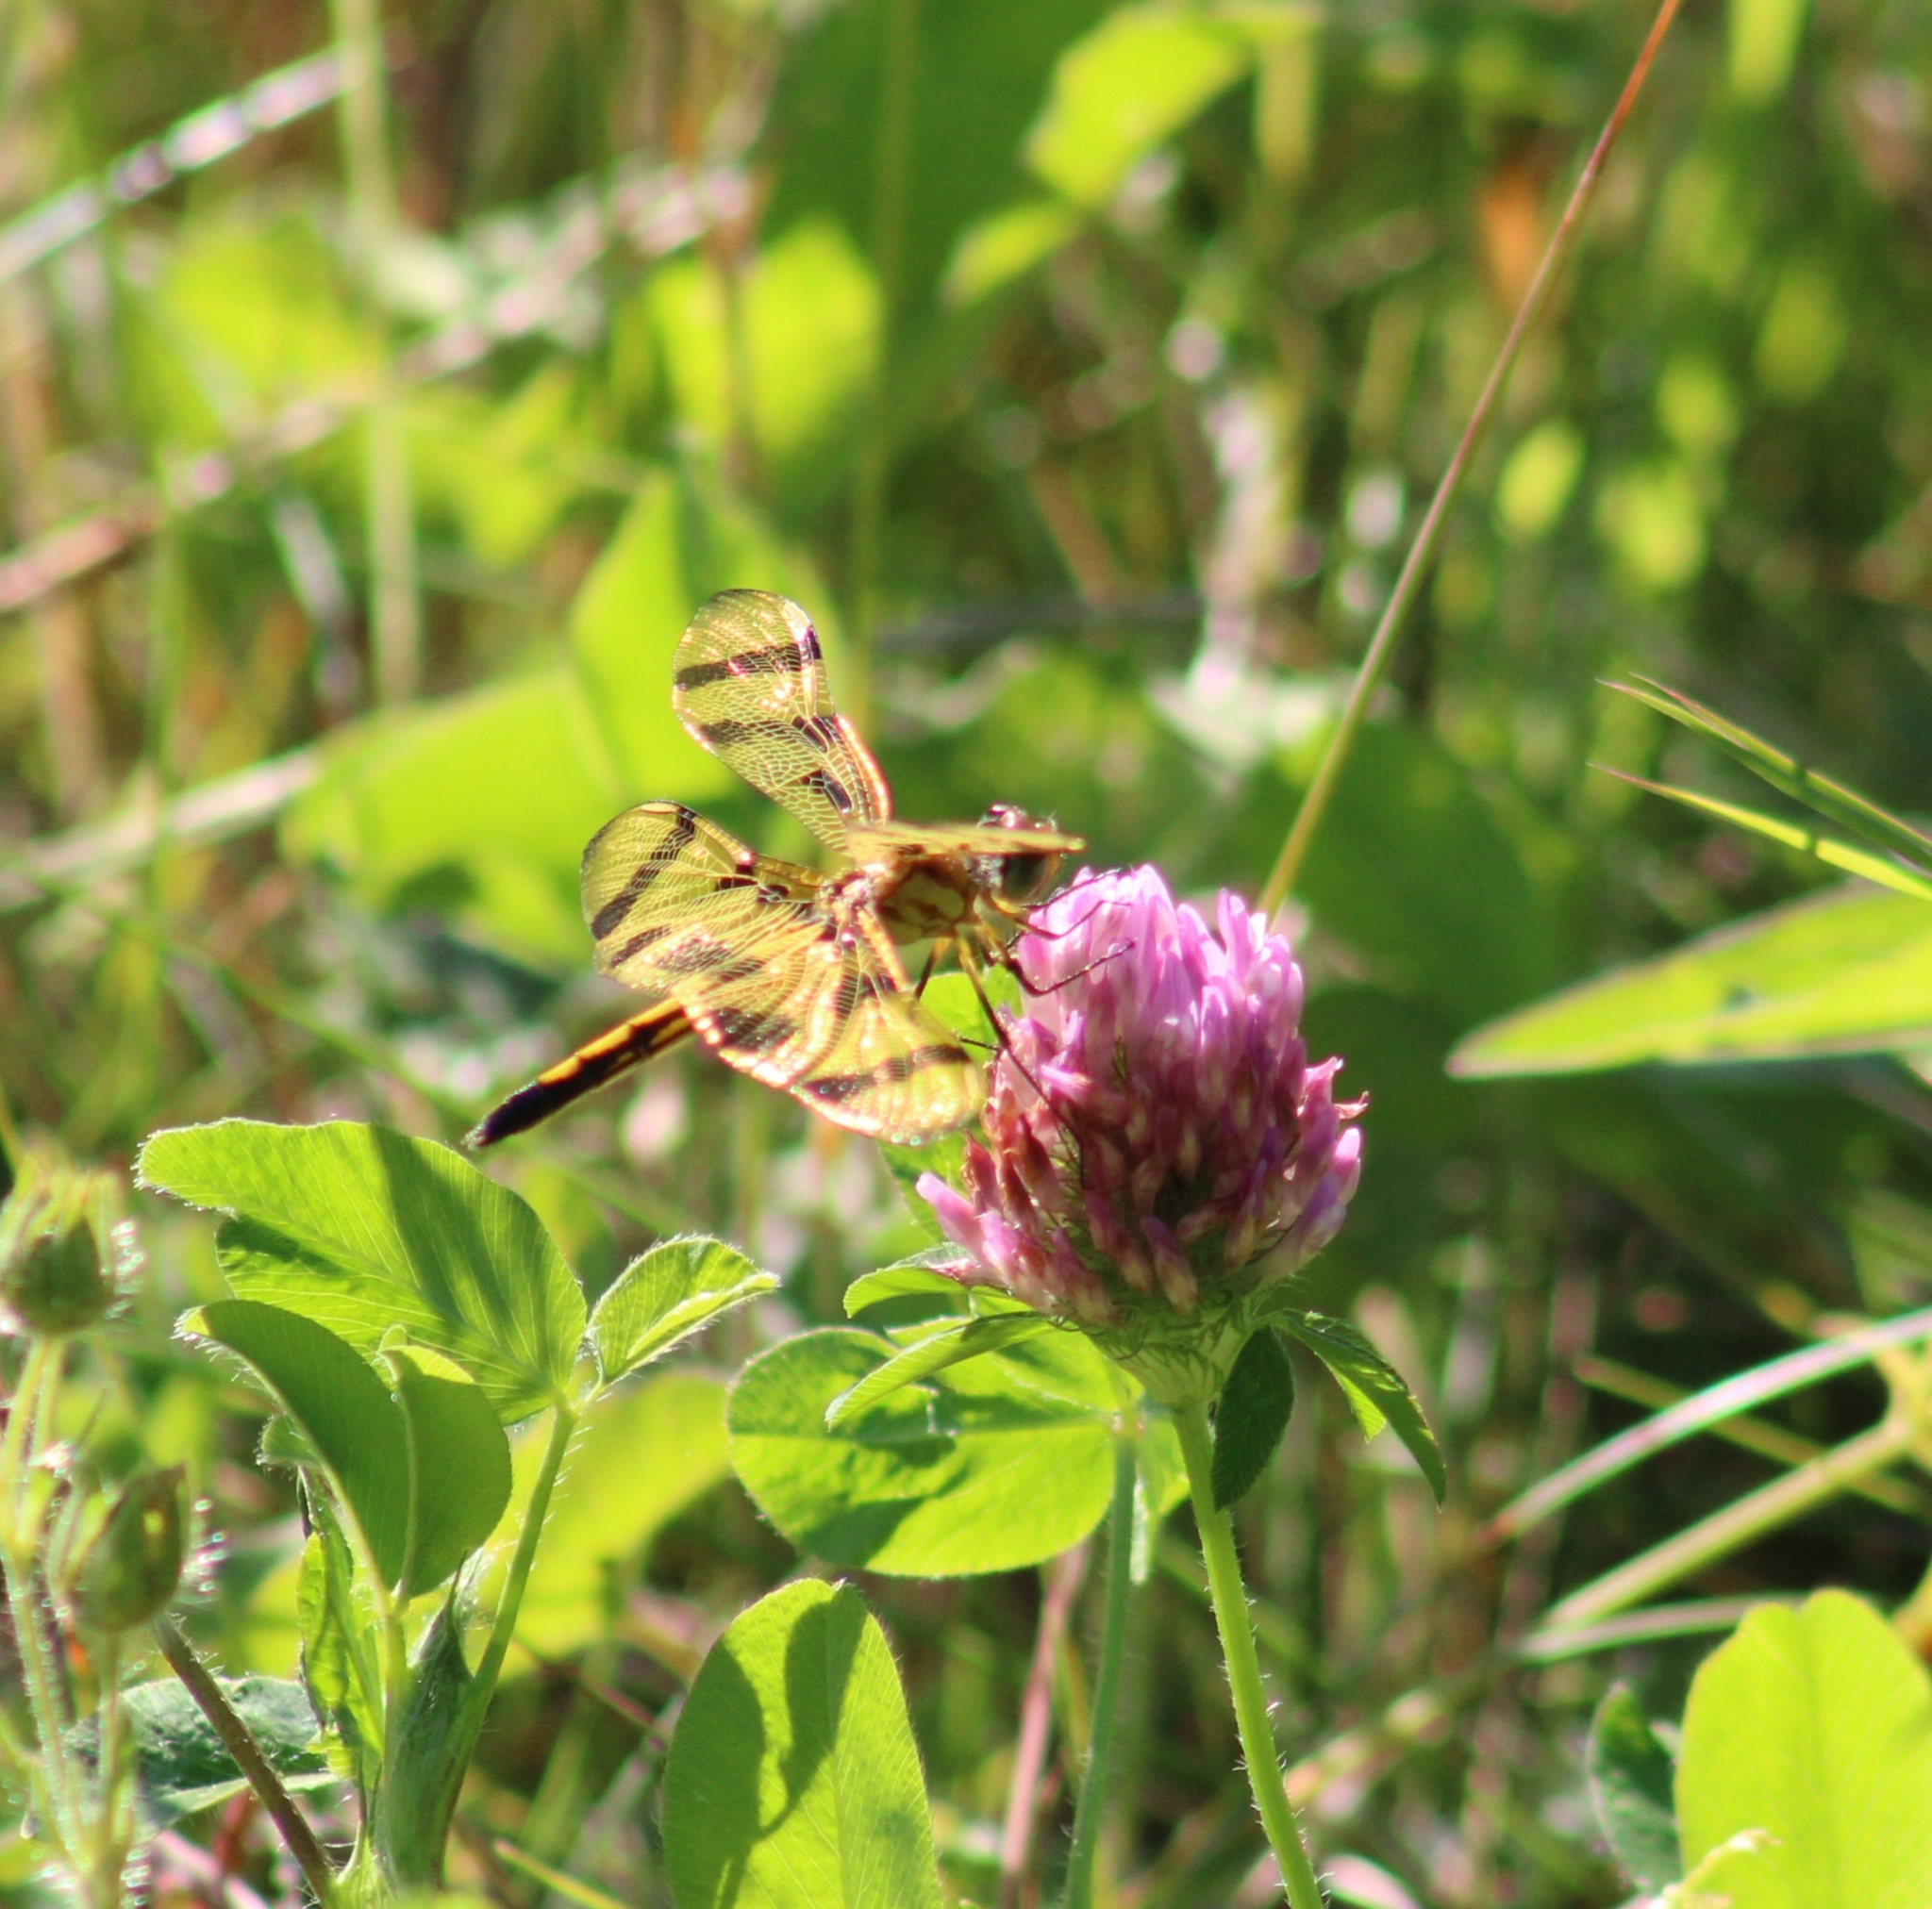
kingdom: Animalia
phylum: Arthropoda
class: Insecta
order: Odonata
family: Libellulidae
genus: Celithemis
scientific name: Celithemis eponina
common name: Halloween pennant
